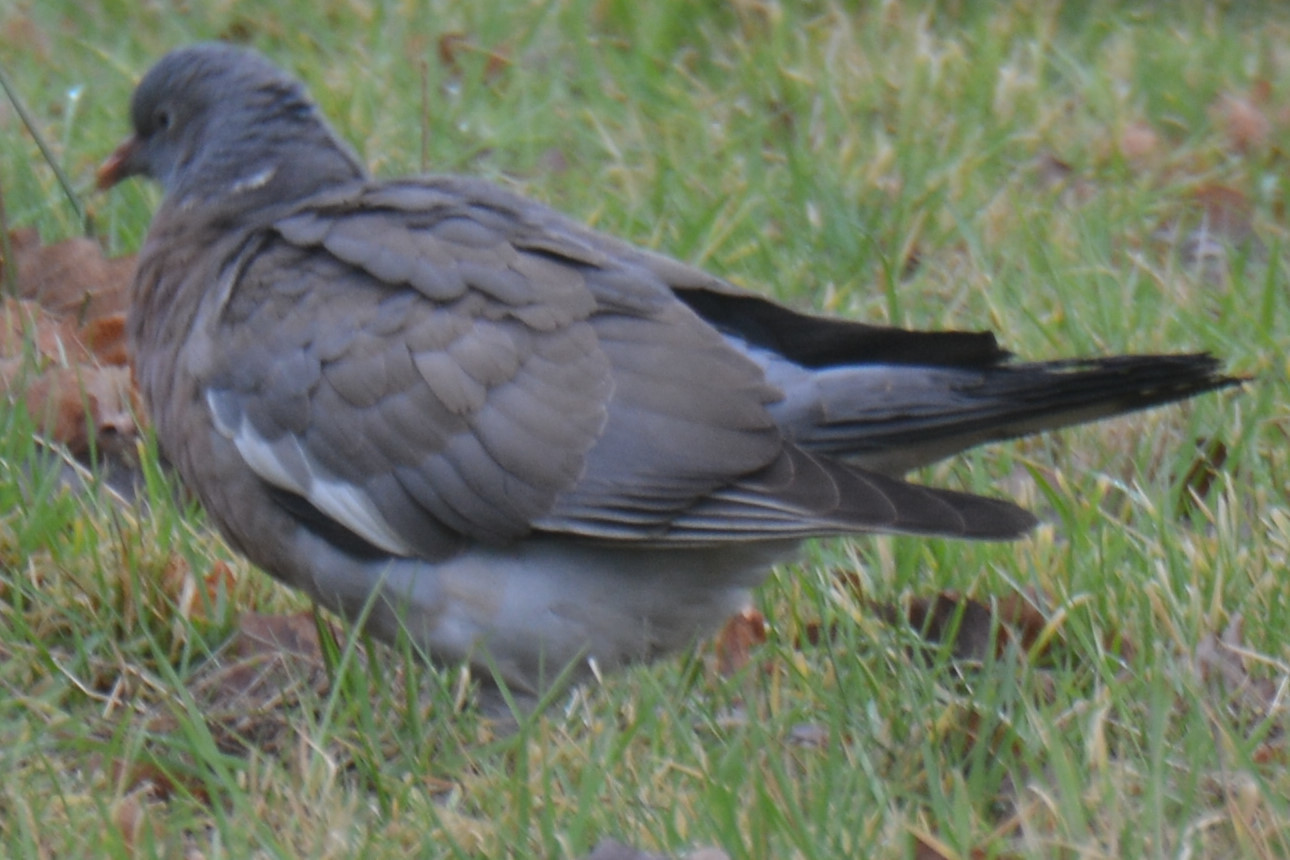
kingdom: Animalia
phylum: Chordata
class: Aves
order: Columbiformes
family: Columbidae
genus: Columba
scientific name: Columba palumbus
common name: Common wood pigeon
